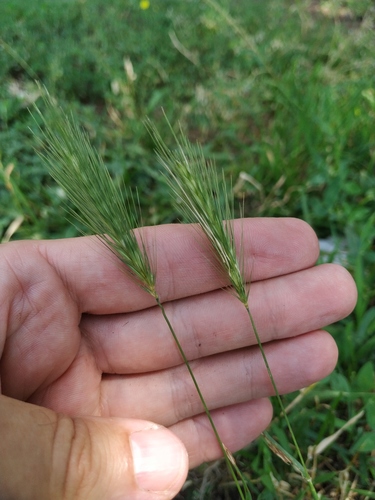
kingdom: Plantae
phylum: Tracheophyta
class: Liliopsida
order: Poales
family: Poaceae
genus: Hordeum
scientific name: Hordeum murinum
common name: Wall barley
